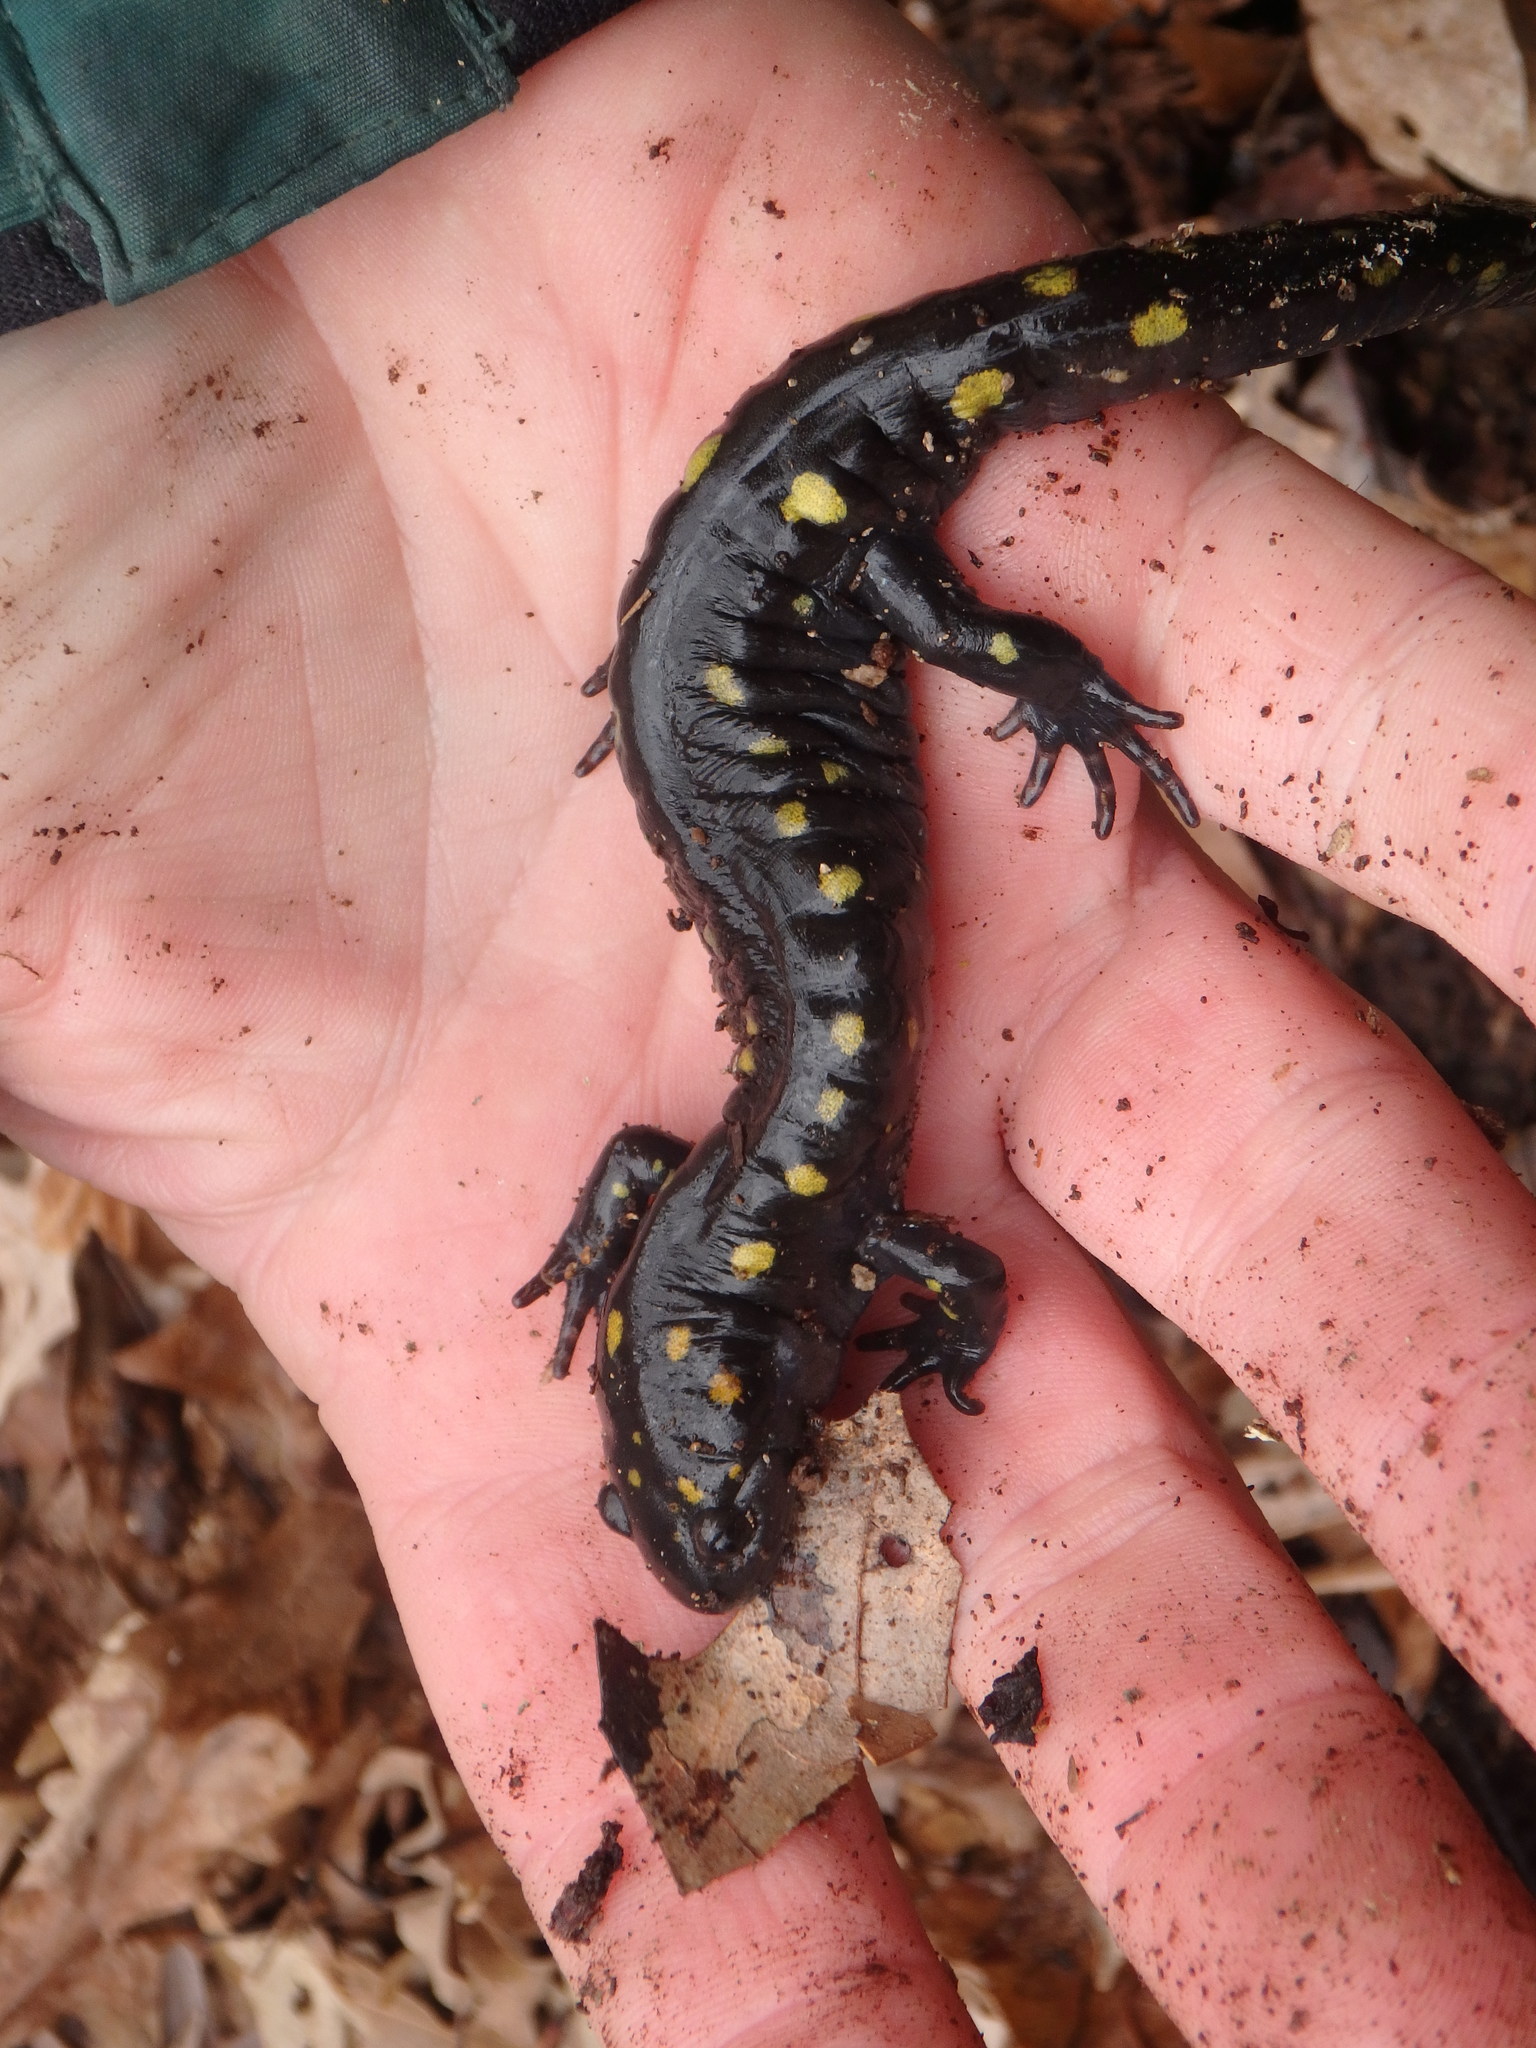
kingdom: Animalia
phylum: Chordata
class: Amphibia
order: Caudata
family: Ambystomatidae
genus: Ambystoma
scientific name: Ambystoma maculatum
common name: Spotted salamander
